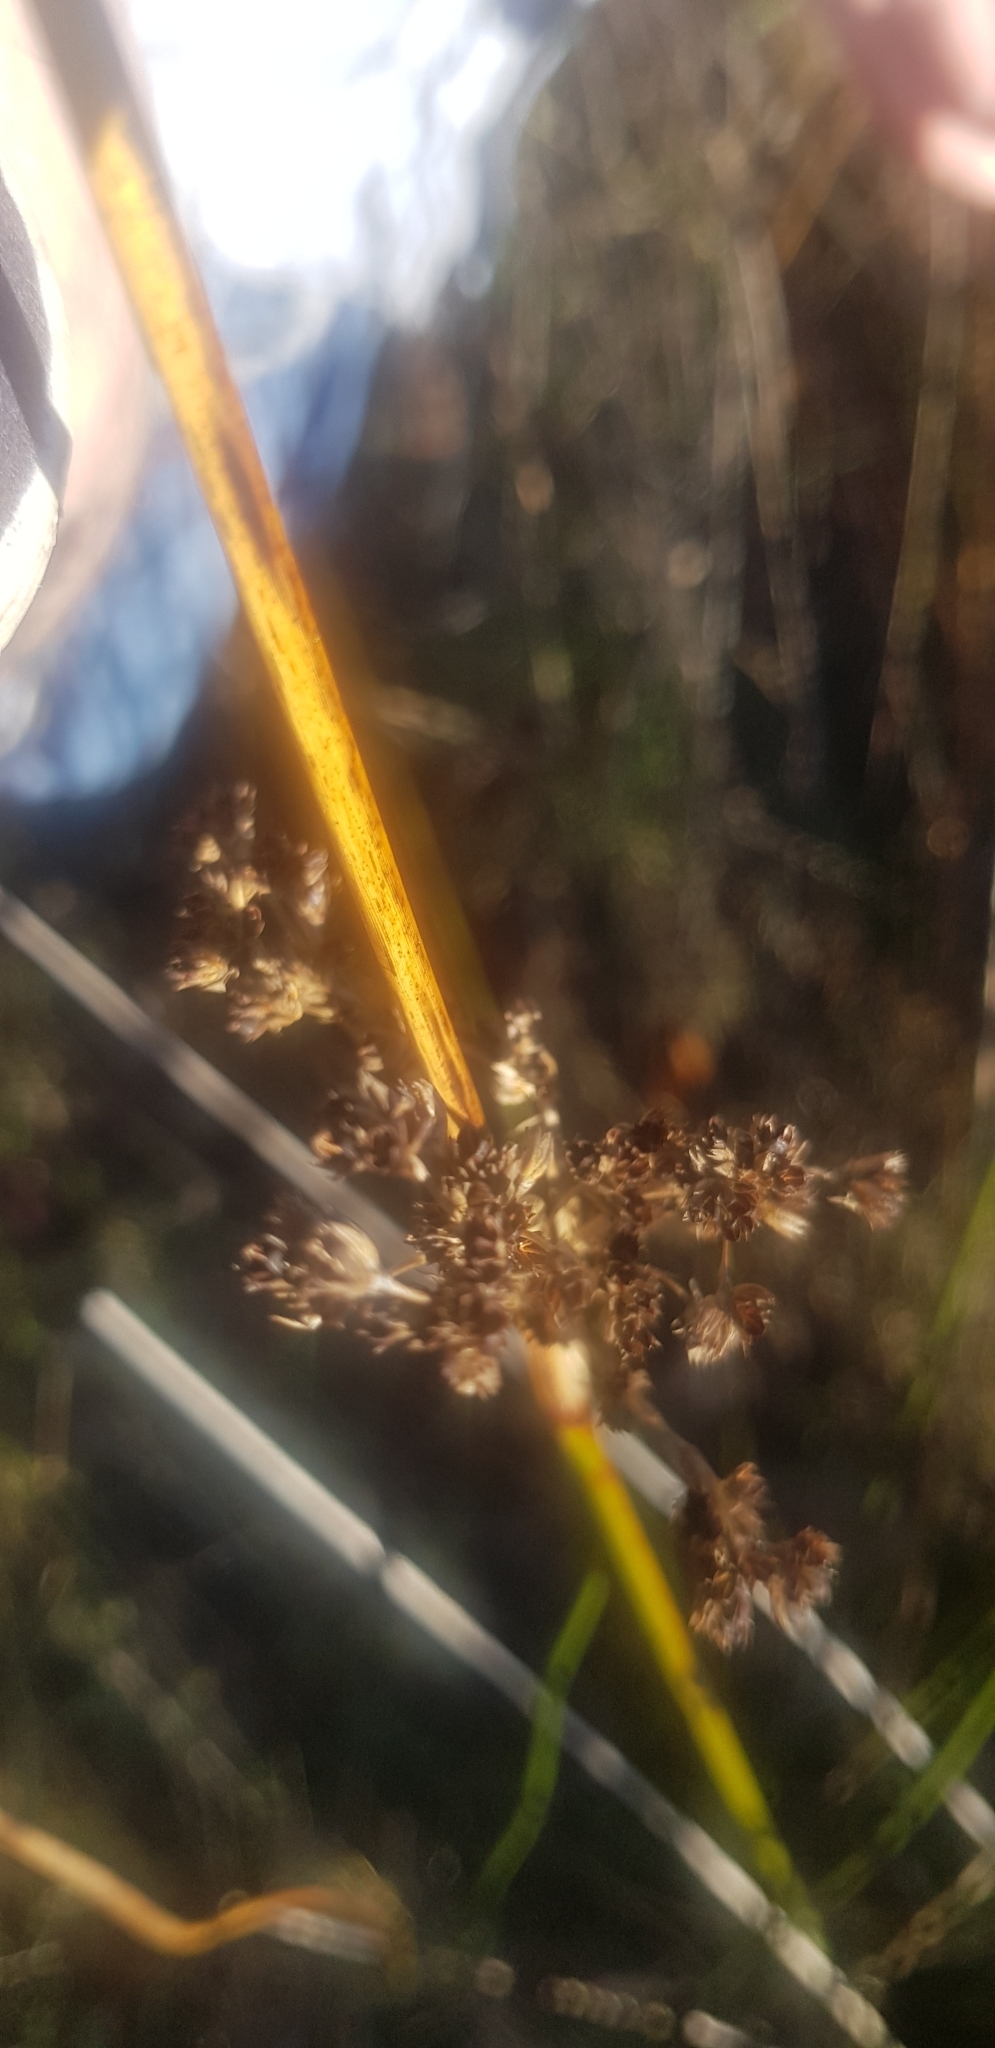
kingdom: Plantae
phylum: Tracheophyta
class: Liliopsida
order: Poales
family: Juncaceae
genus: Juncus
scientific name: Juncus kraussii
